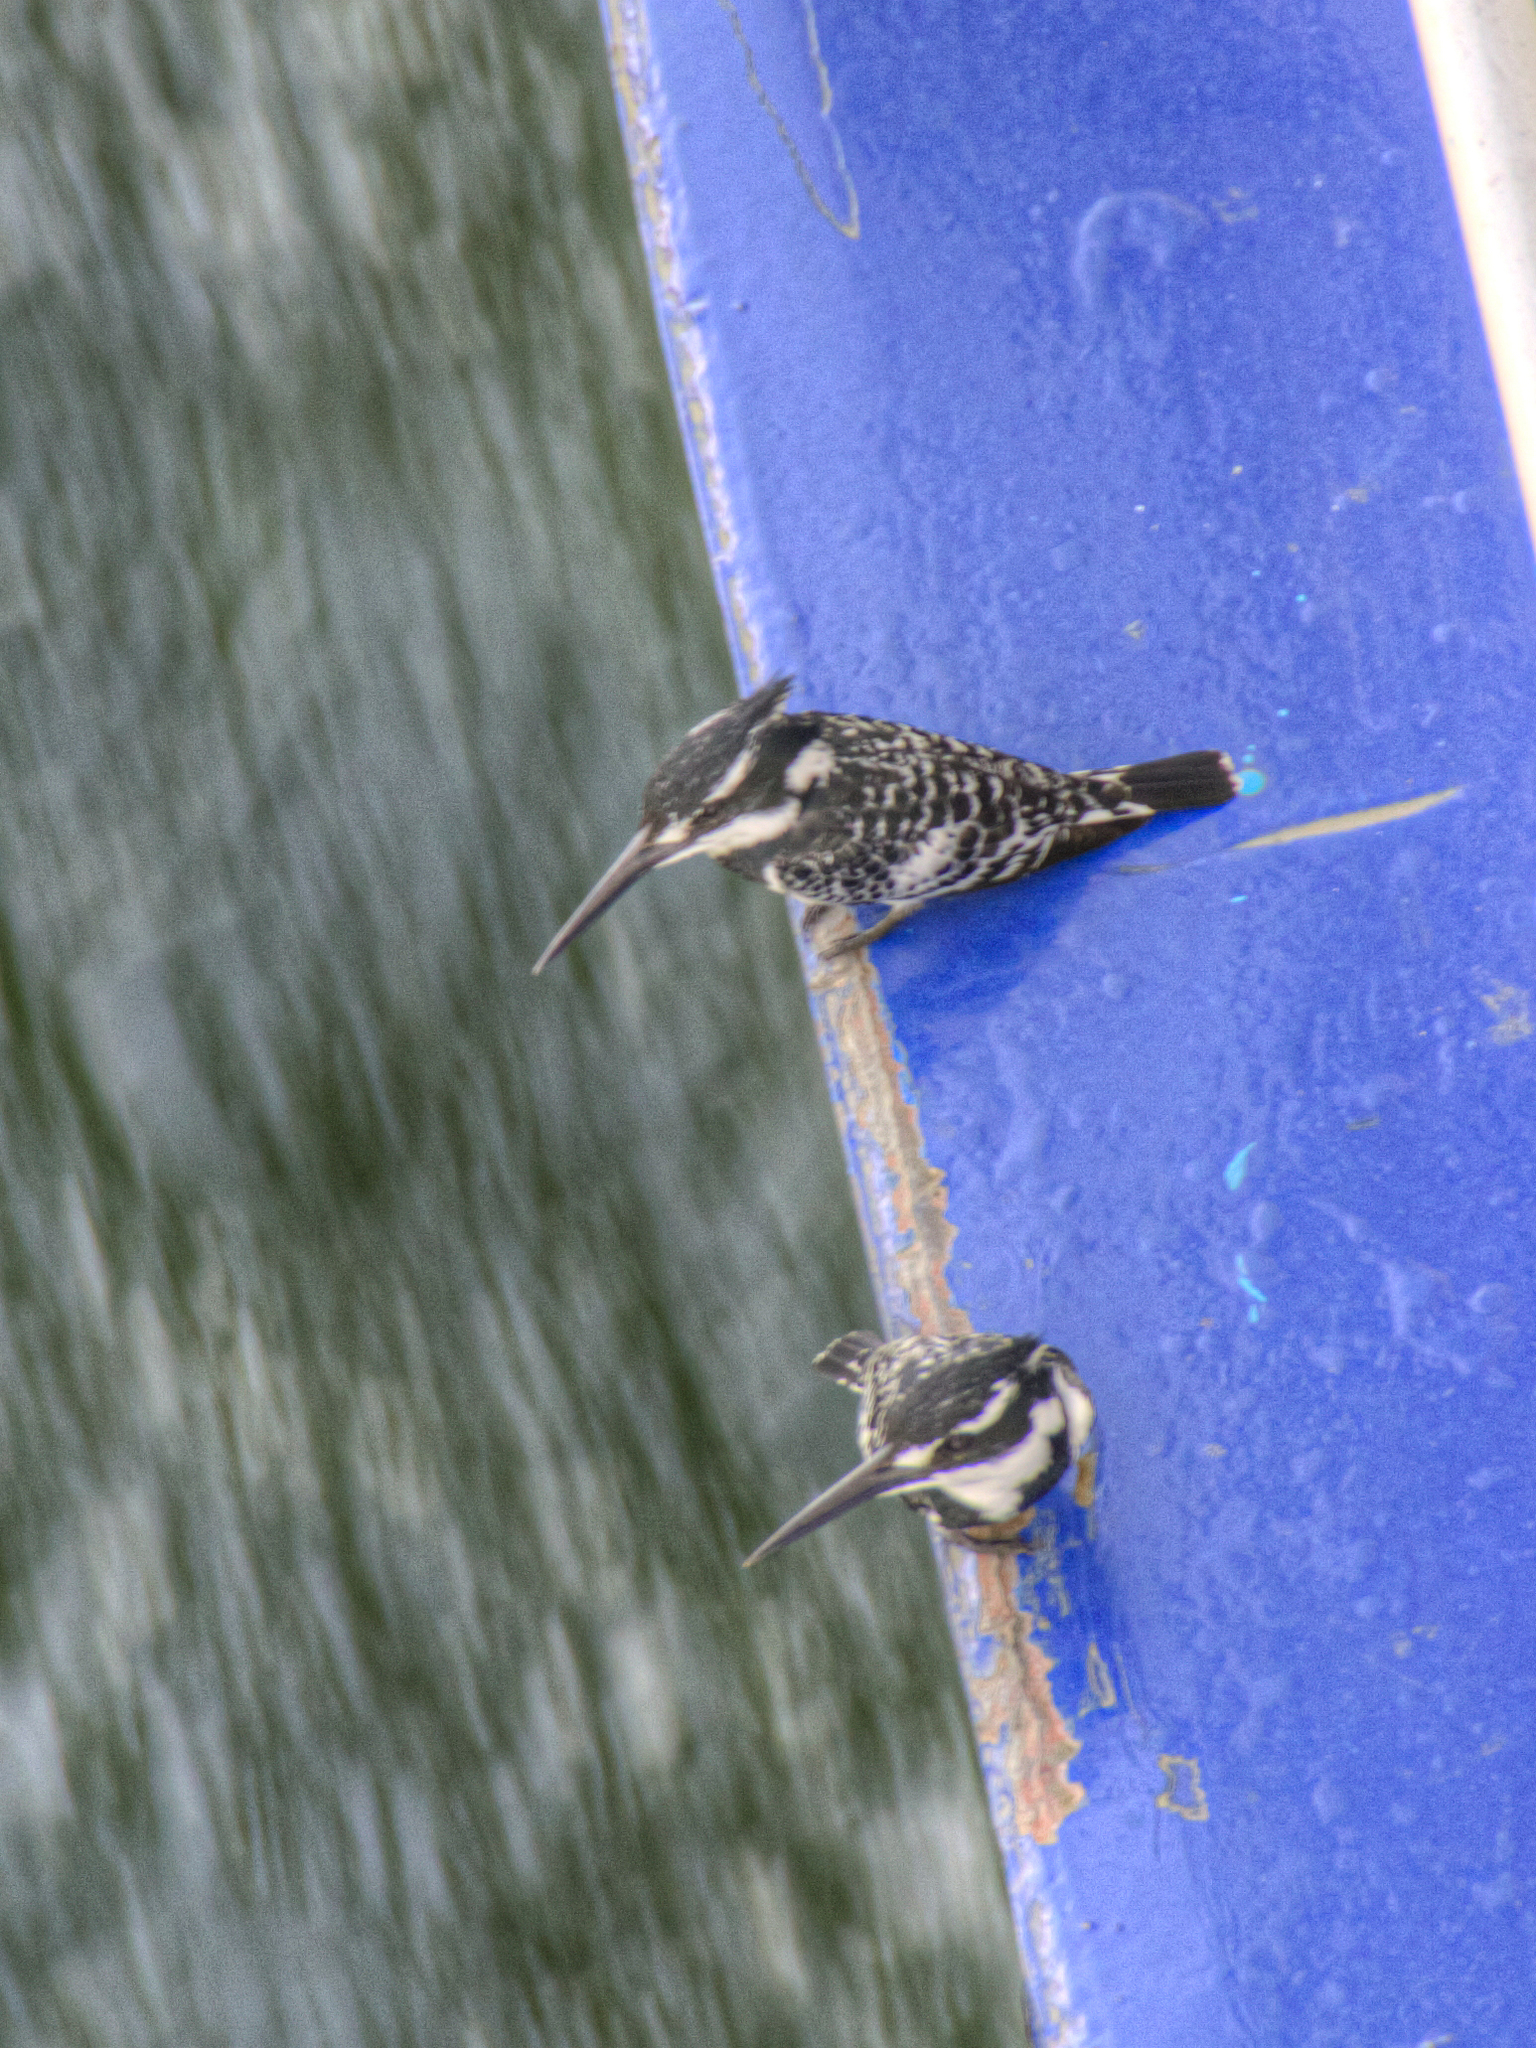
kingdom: Animalia
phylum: Chordata
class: Aves
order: Coraciiformes
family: Alcedinidae
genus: Ceryle
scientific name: Ceryle rudis
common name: Pied kingfisher
